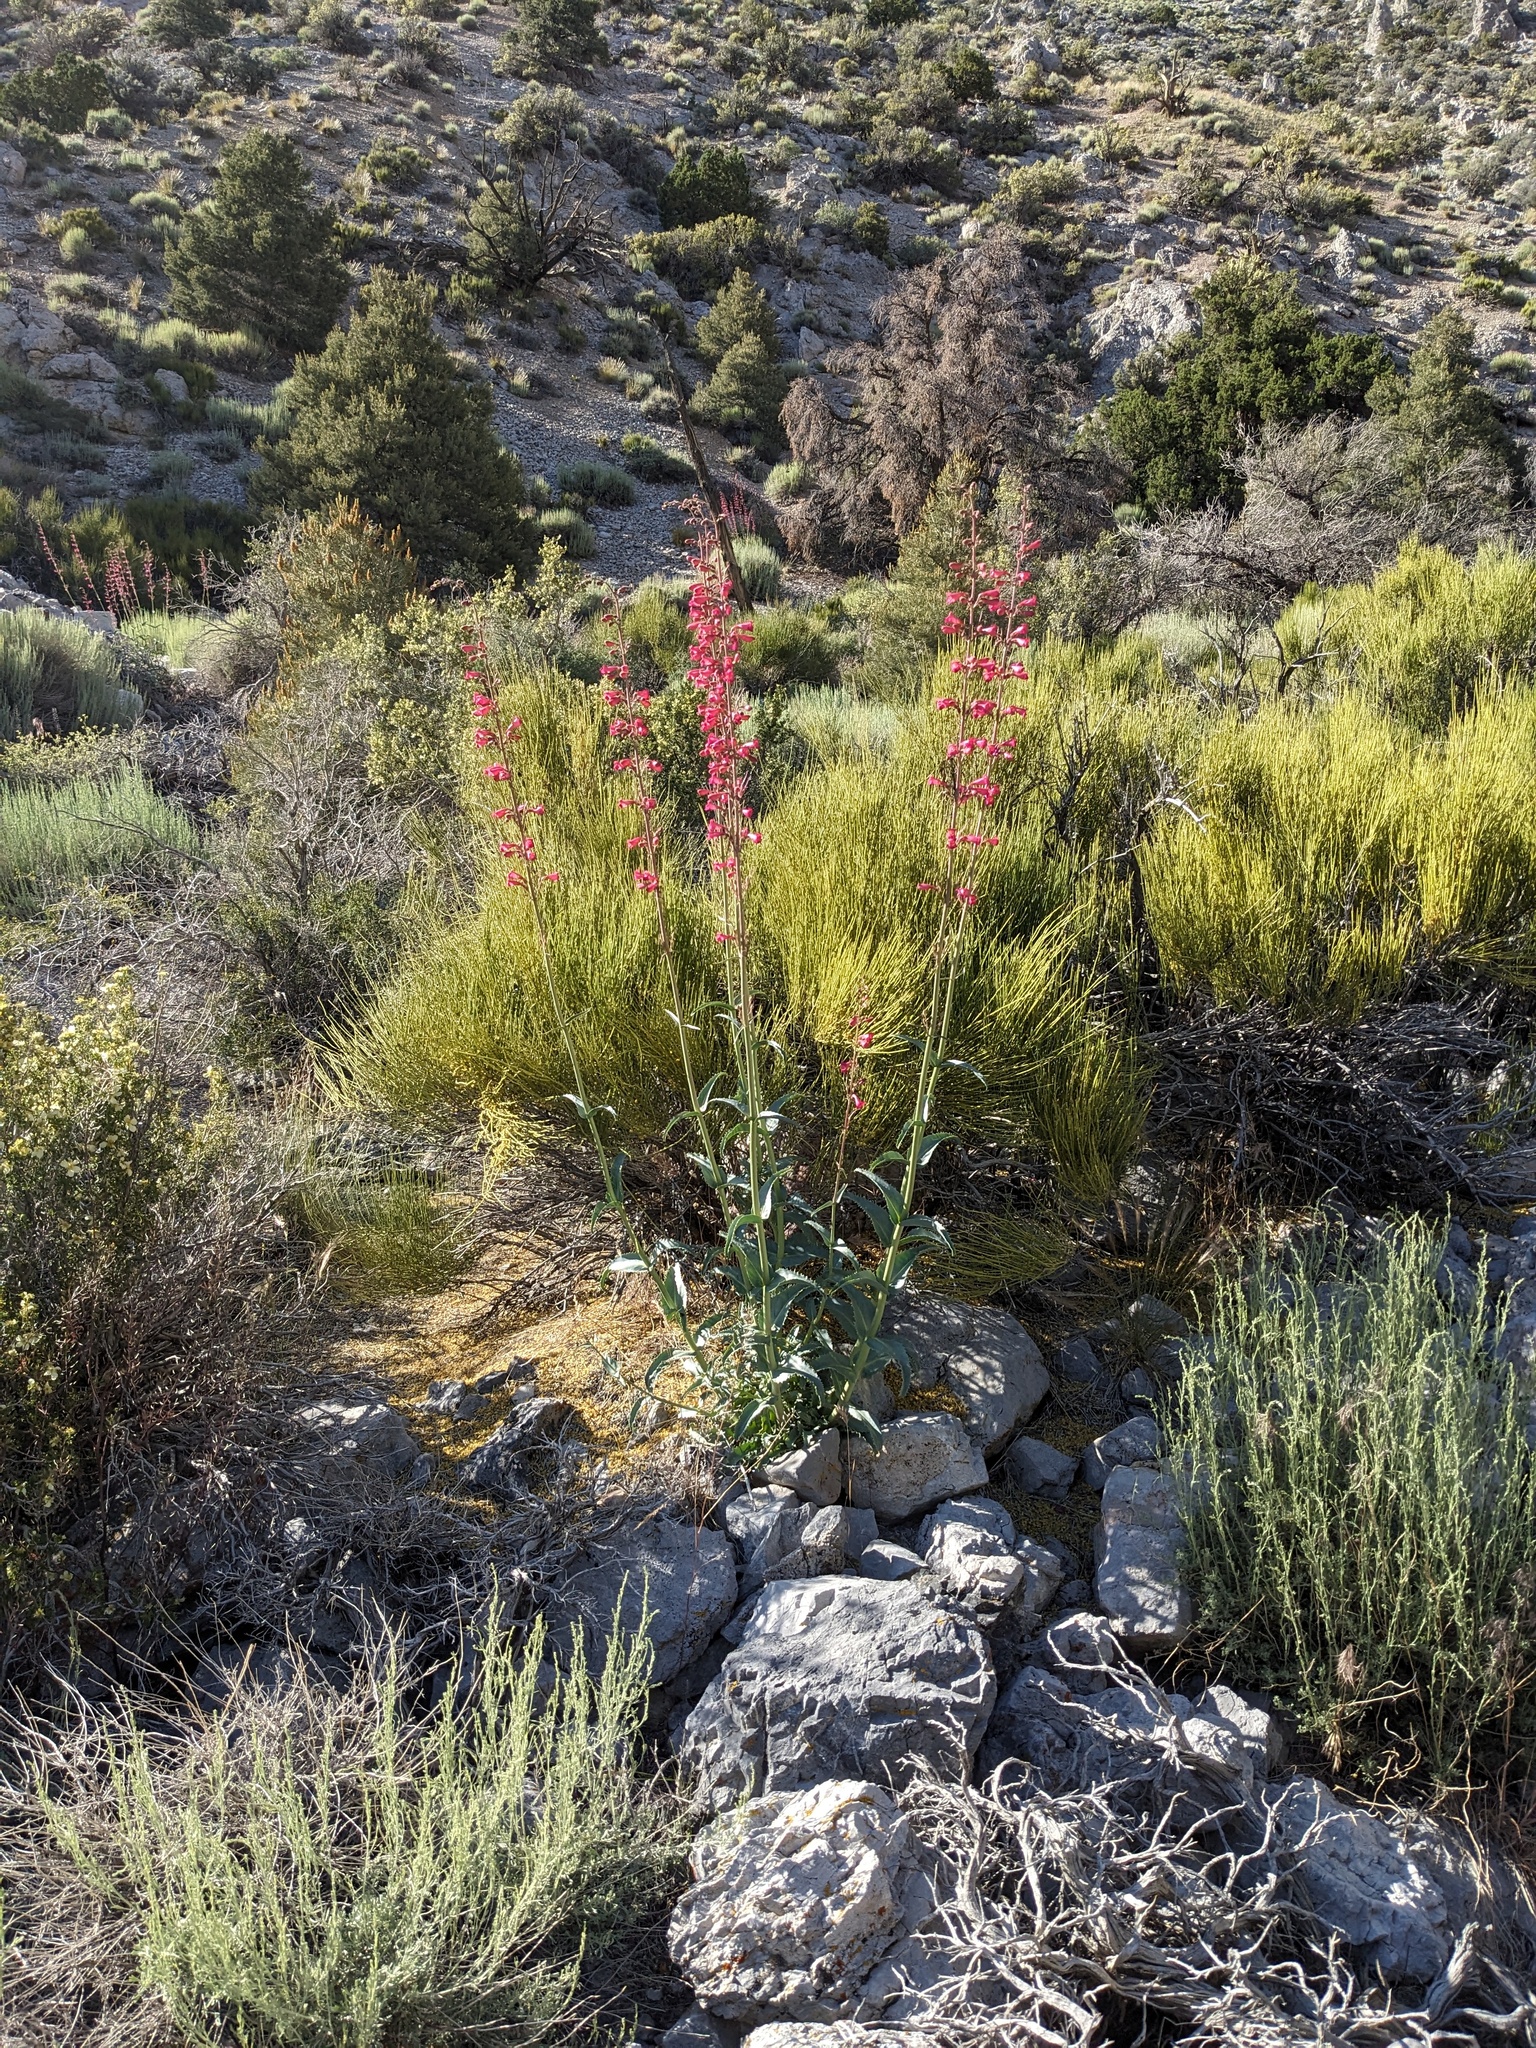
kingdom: Plantae
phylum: Tracheophyta
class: Magnoliopsida
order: Lamiales
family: Plantaginaceae
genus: Penstemon
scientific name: Penstemon floridus
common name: Panamint penstemon
